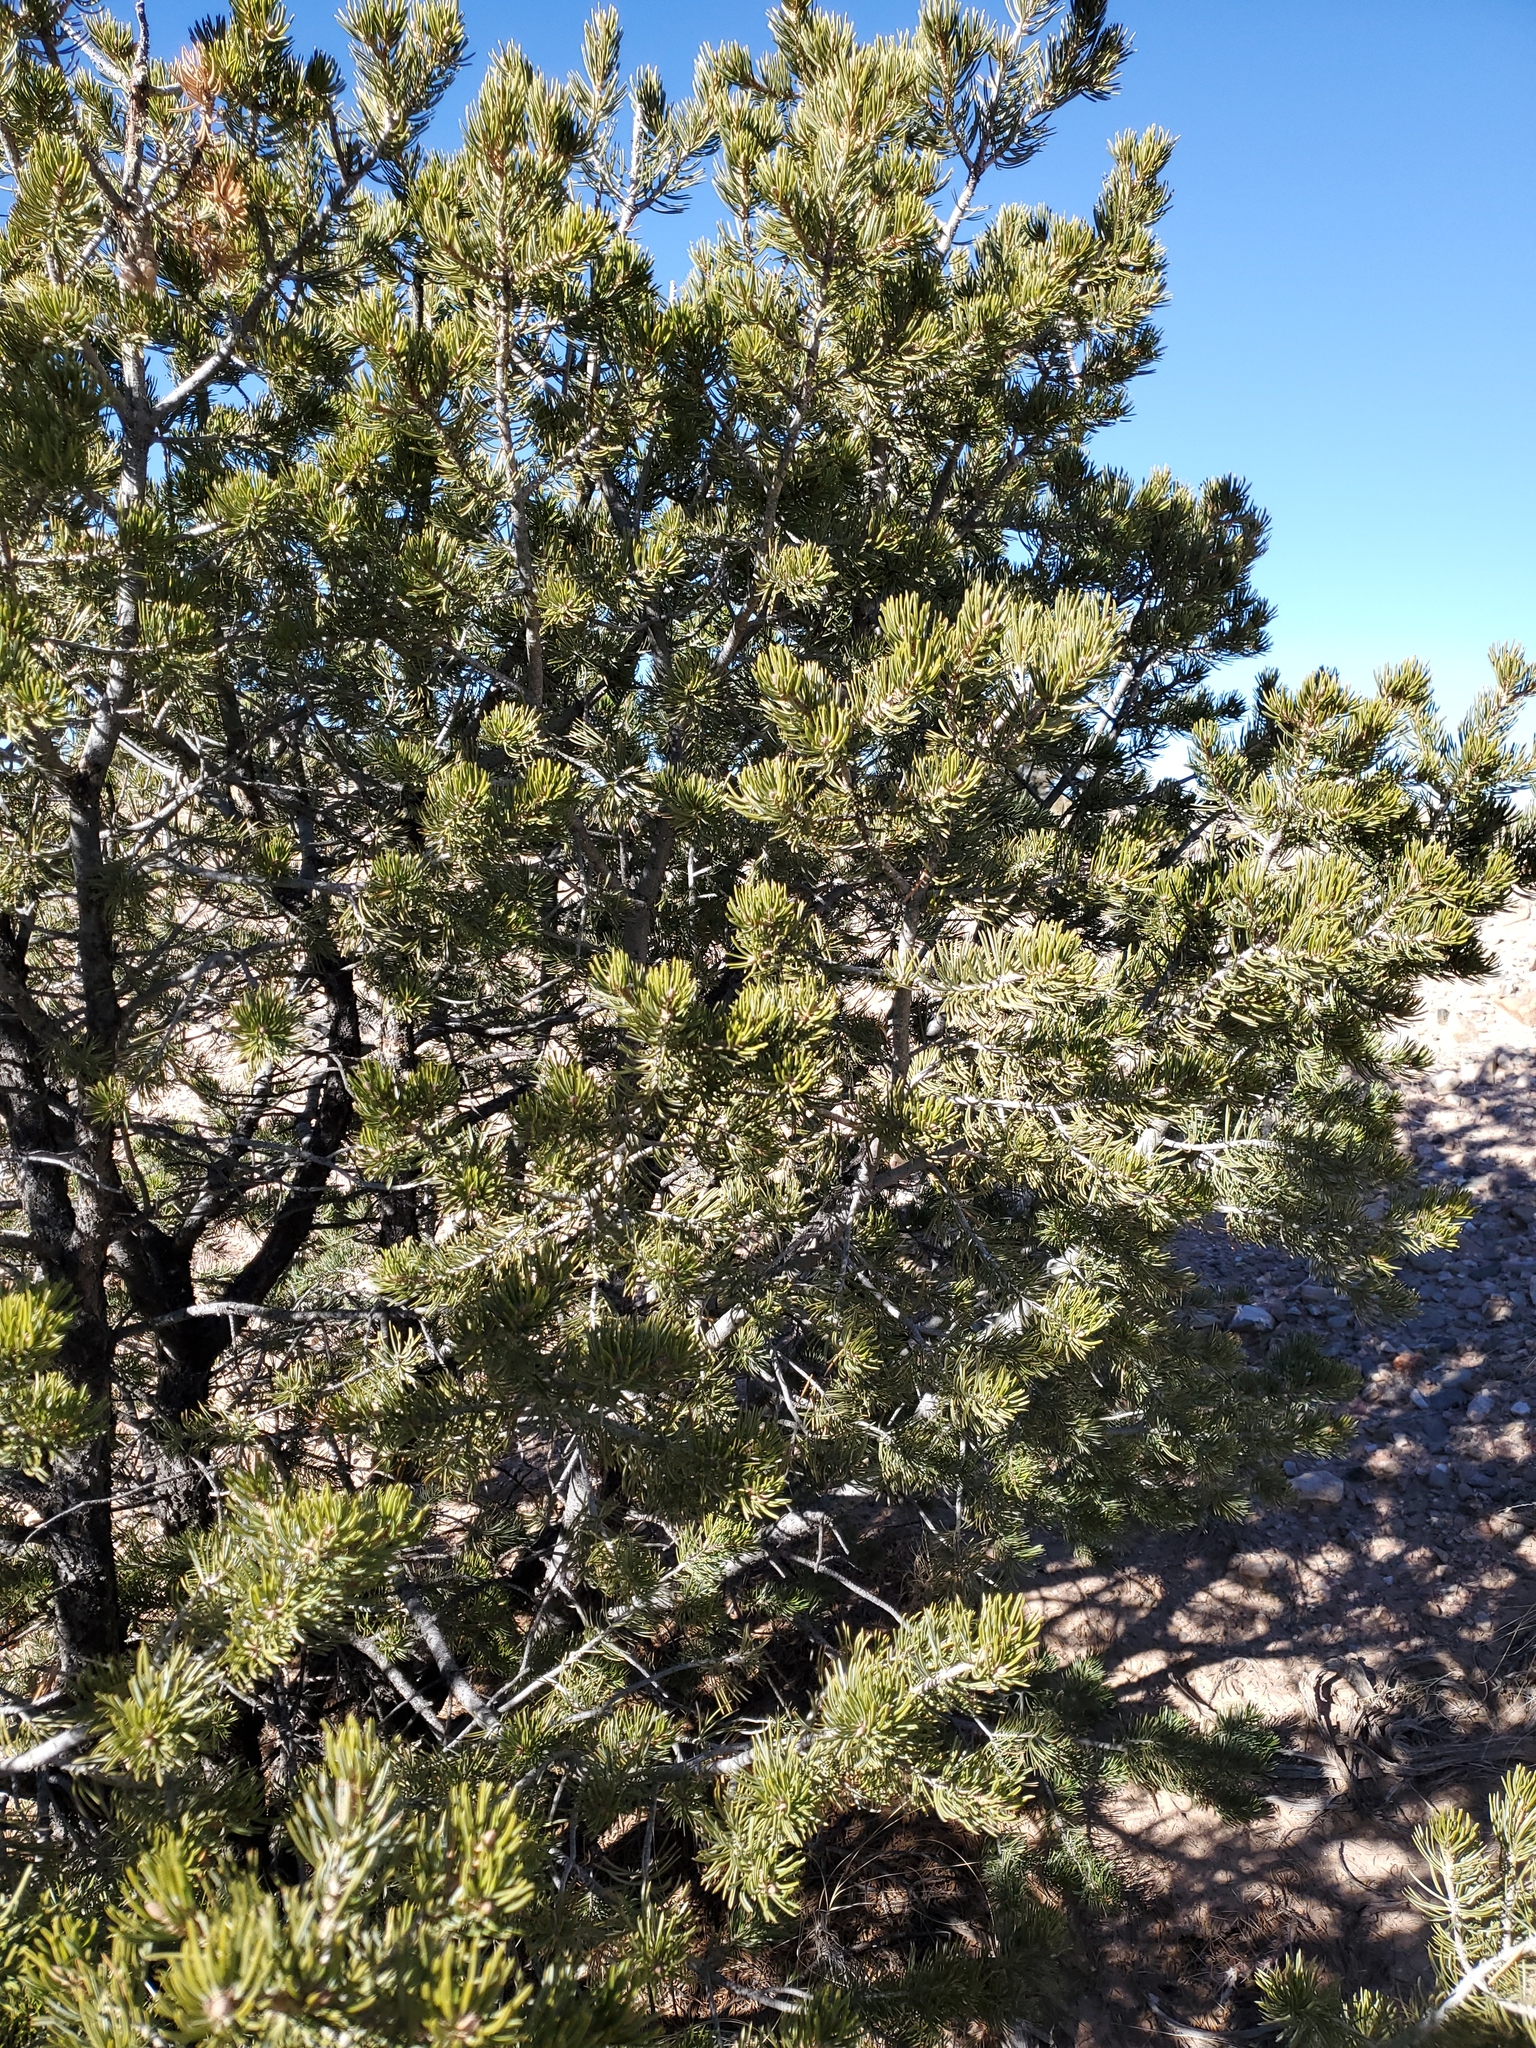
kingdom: Plantae
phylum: Tracheophyta
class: Pinopsida
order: Pinales
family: Pinaceae
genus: Pinus
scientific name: Pinus edulis
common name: Colorado pinyon
